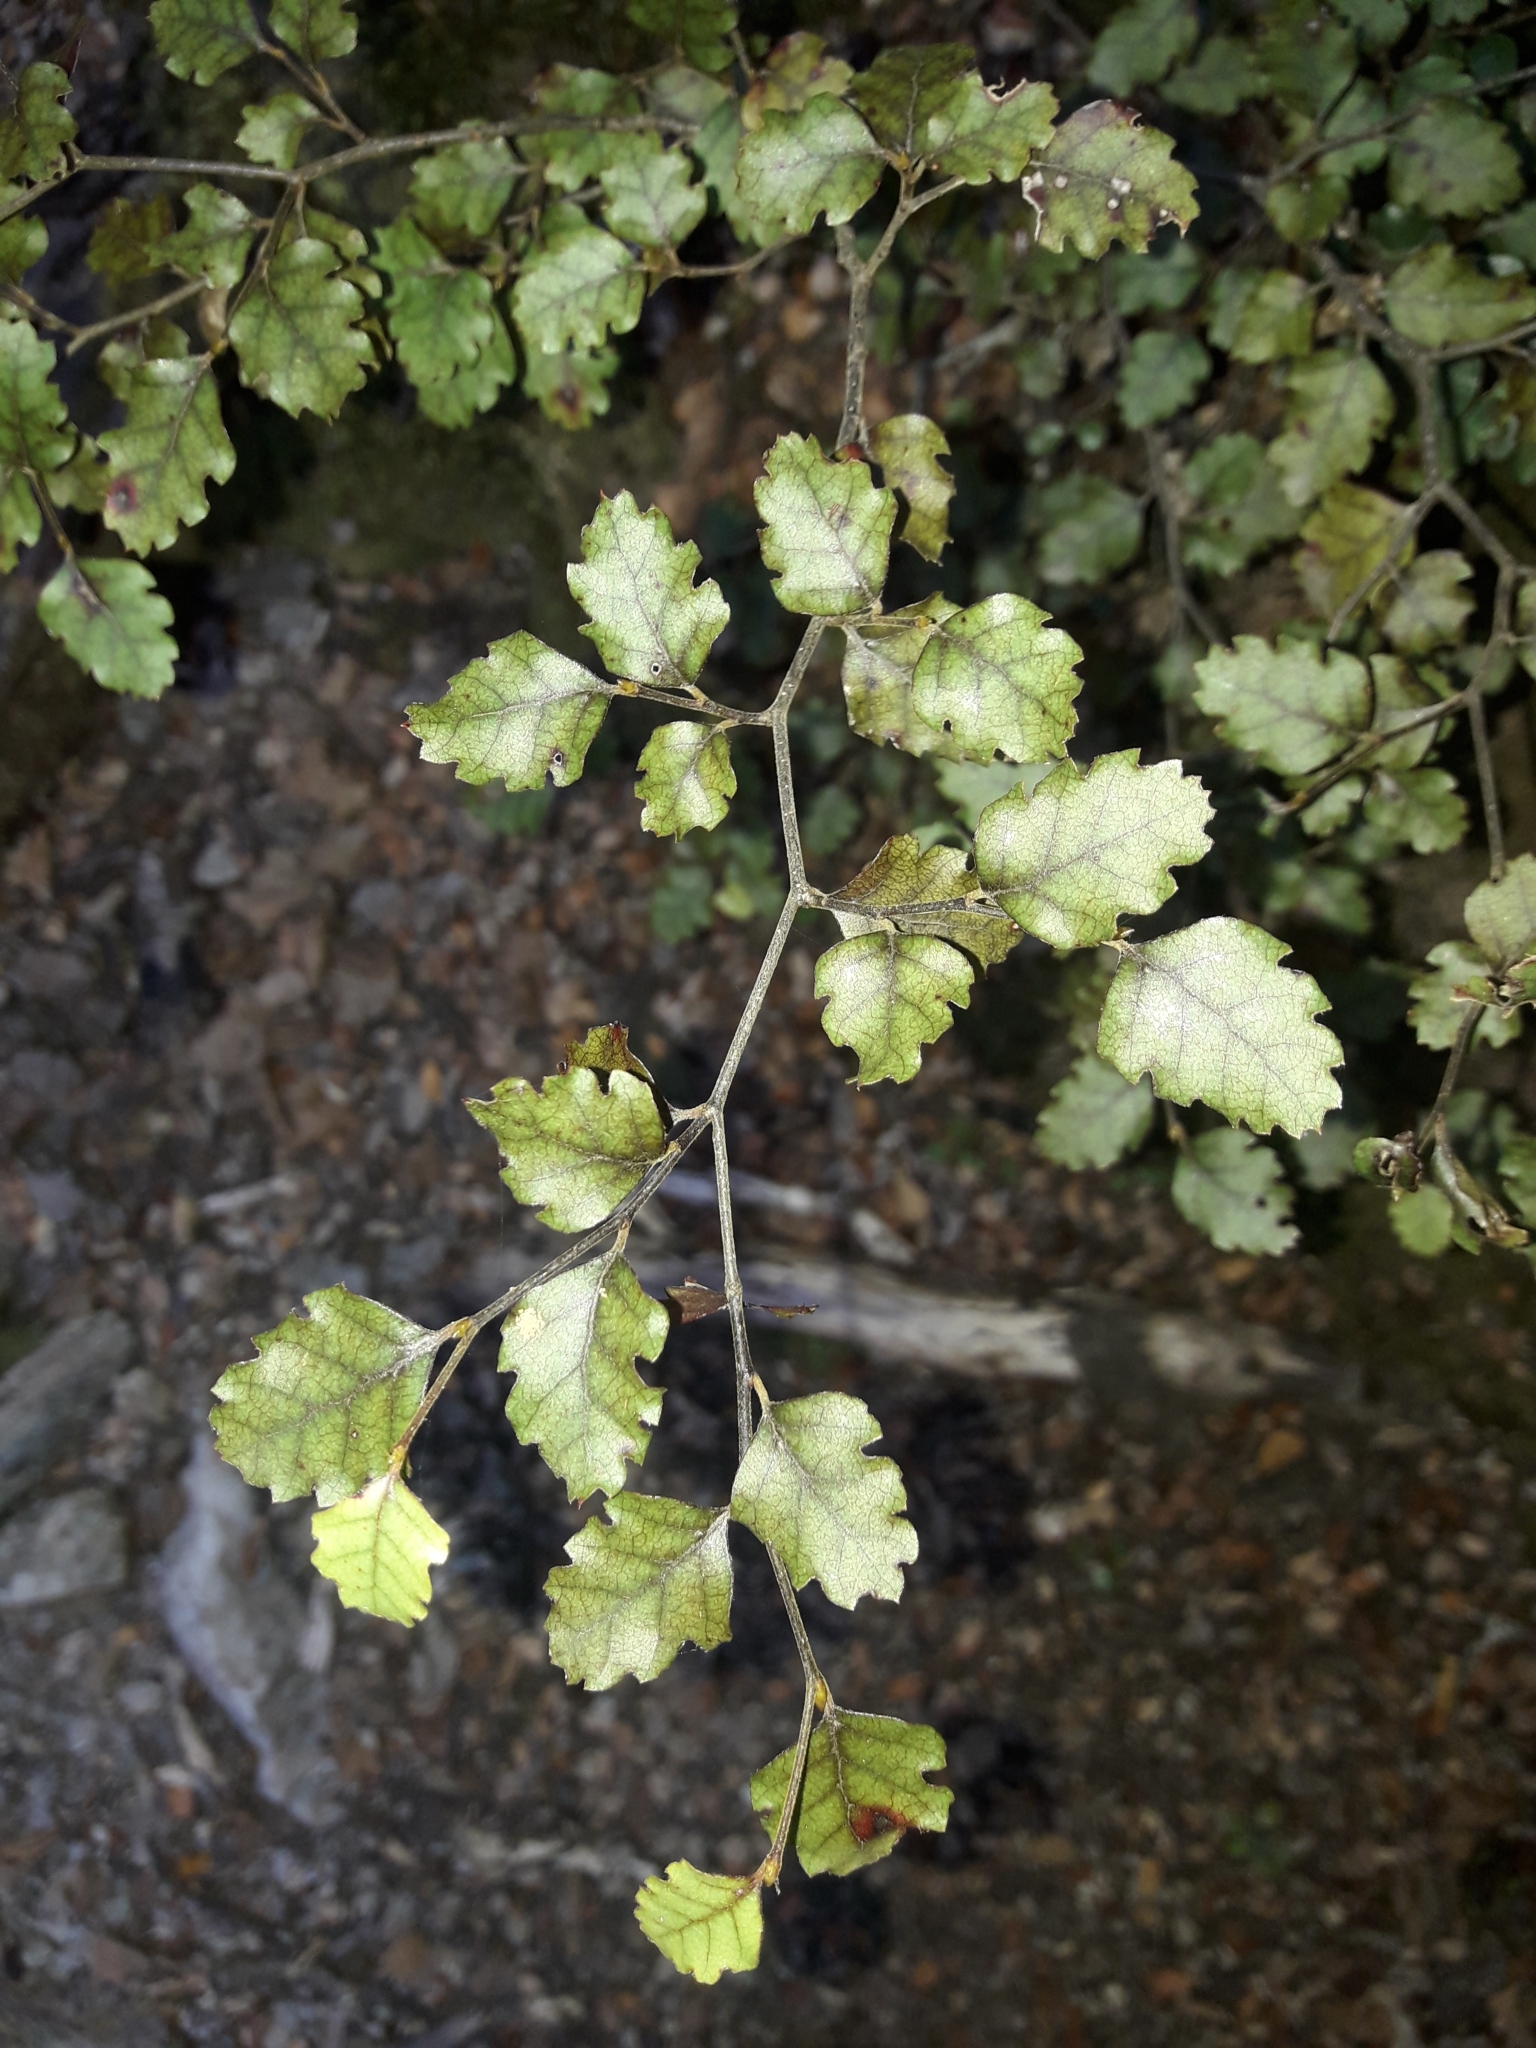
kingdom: Plantae
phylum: Tracheophyta
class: Magnoliopsida
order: Fagales
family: Nothofagaceae
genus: Nothofagus
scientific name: Nothofagus fusca
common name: Red beech
